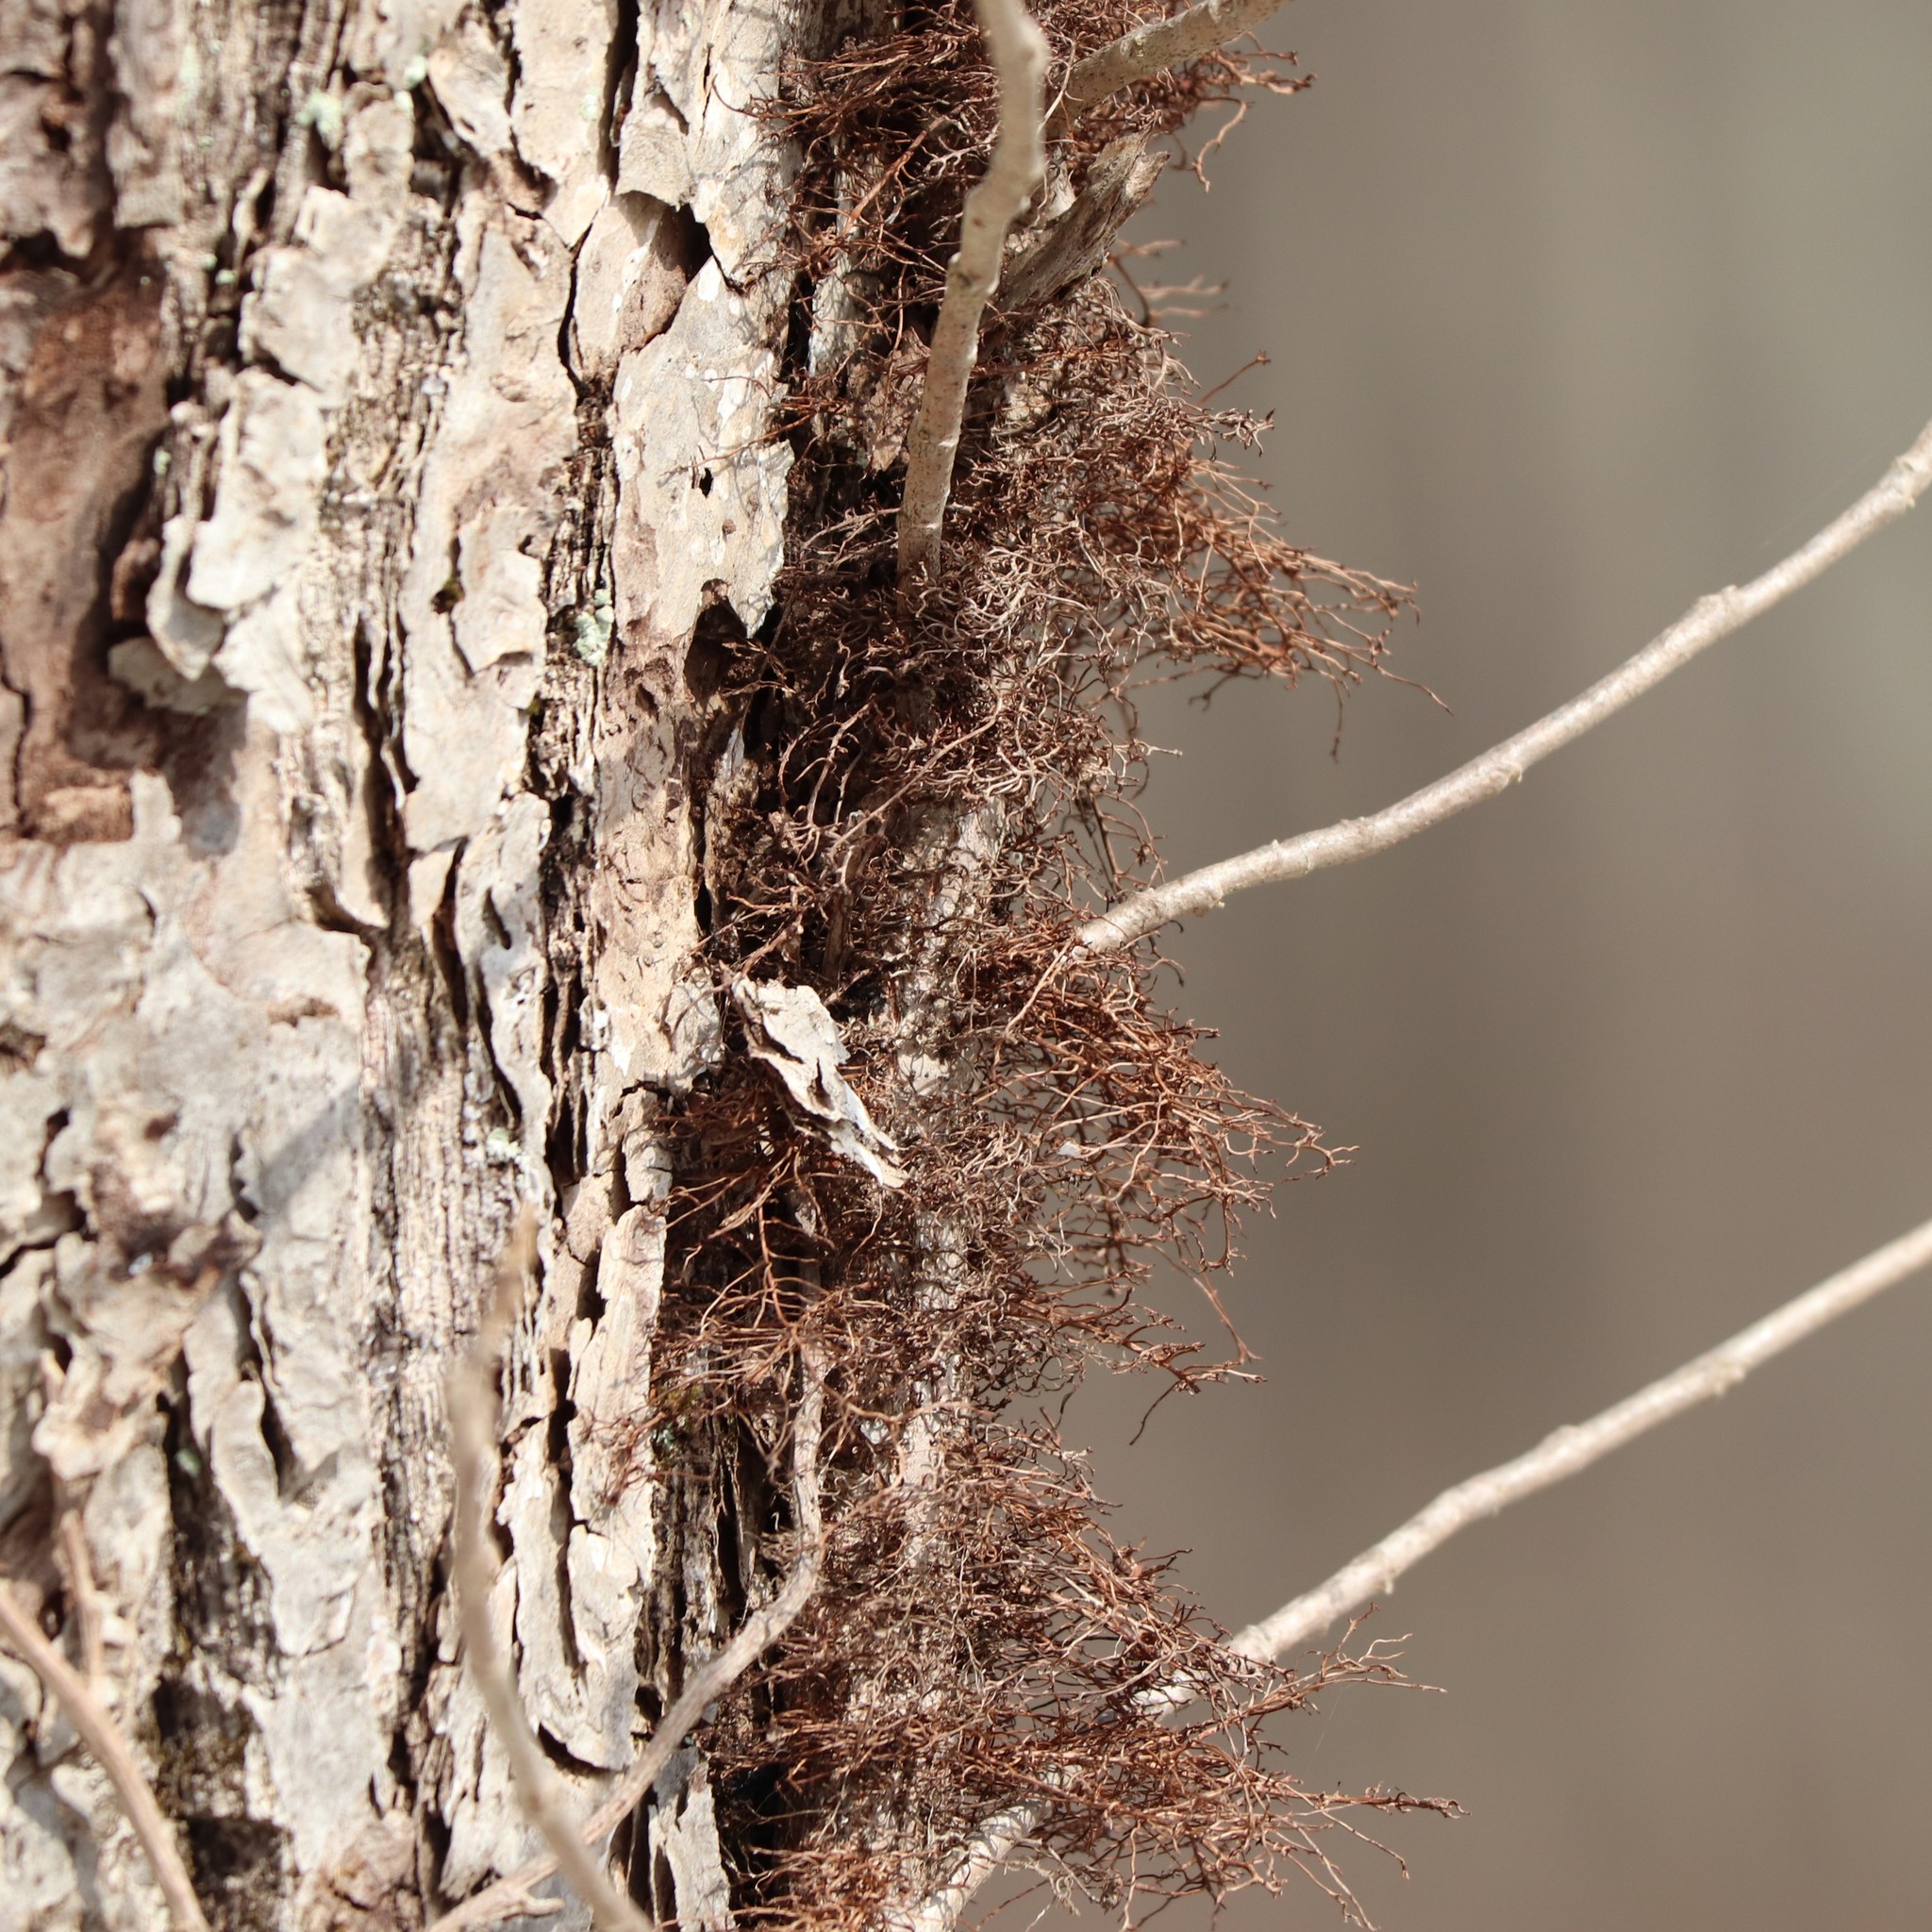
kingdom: Plantae
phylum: Tracheophyta
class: Magnoliopsida
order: Sapindales
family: Anacardiaceae
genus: Toxicodendron
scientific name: Toxicodendron radicans
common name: Poison ivy
